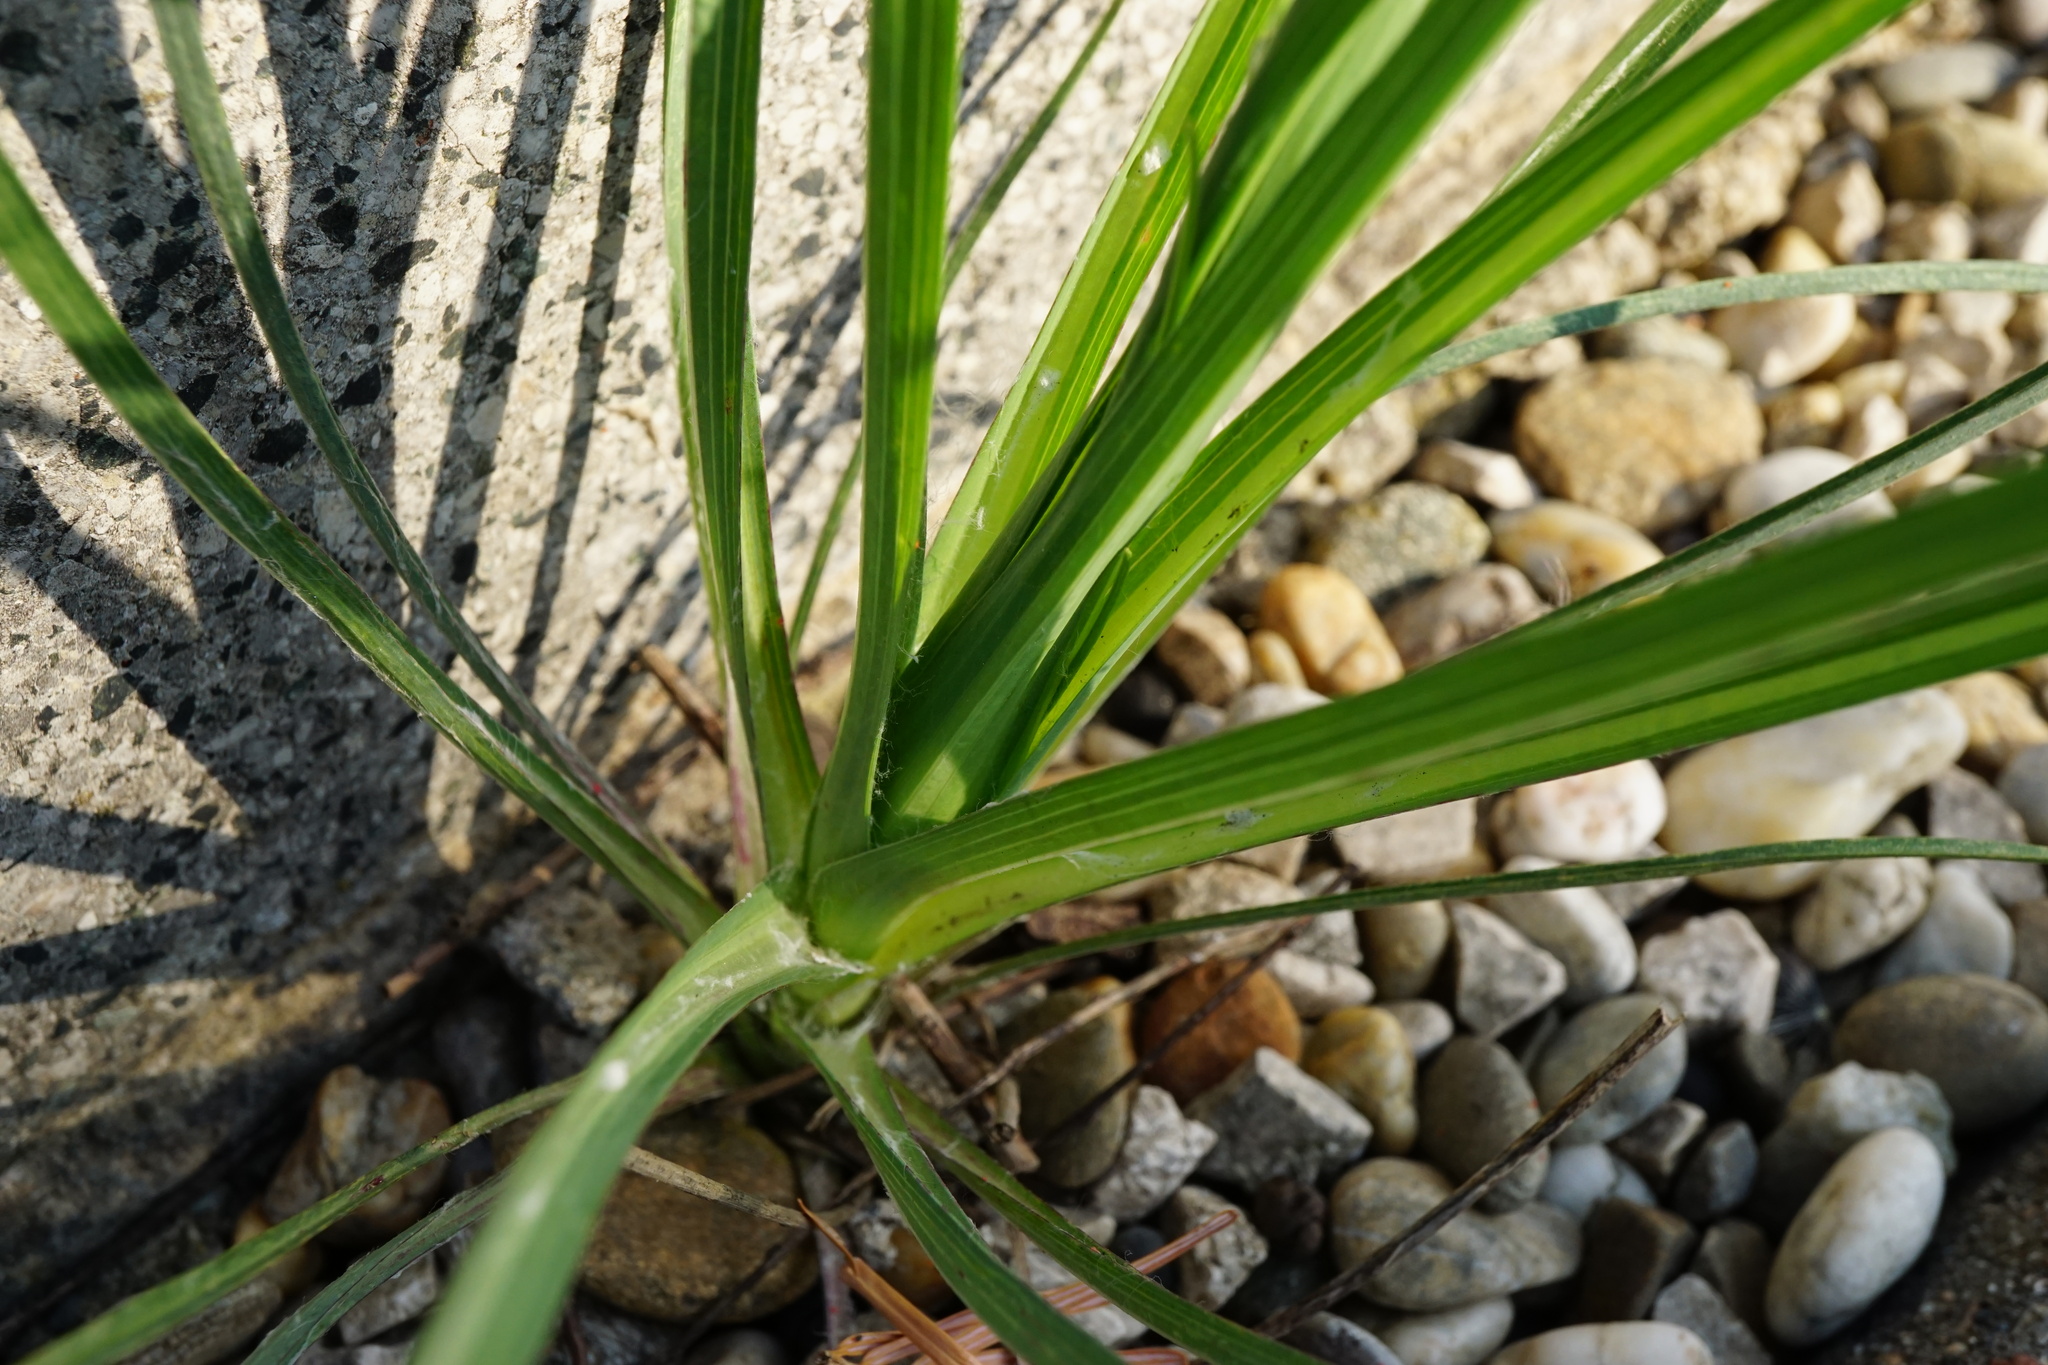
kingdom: Plantae
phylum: Tracheophyta
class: Magnoliopsida
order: Asterales
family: Asteraceae
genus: Tragopogon
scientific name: Tragopogon dubius
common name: Yellow salsify
